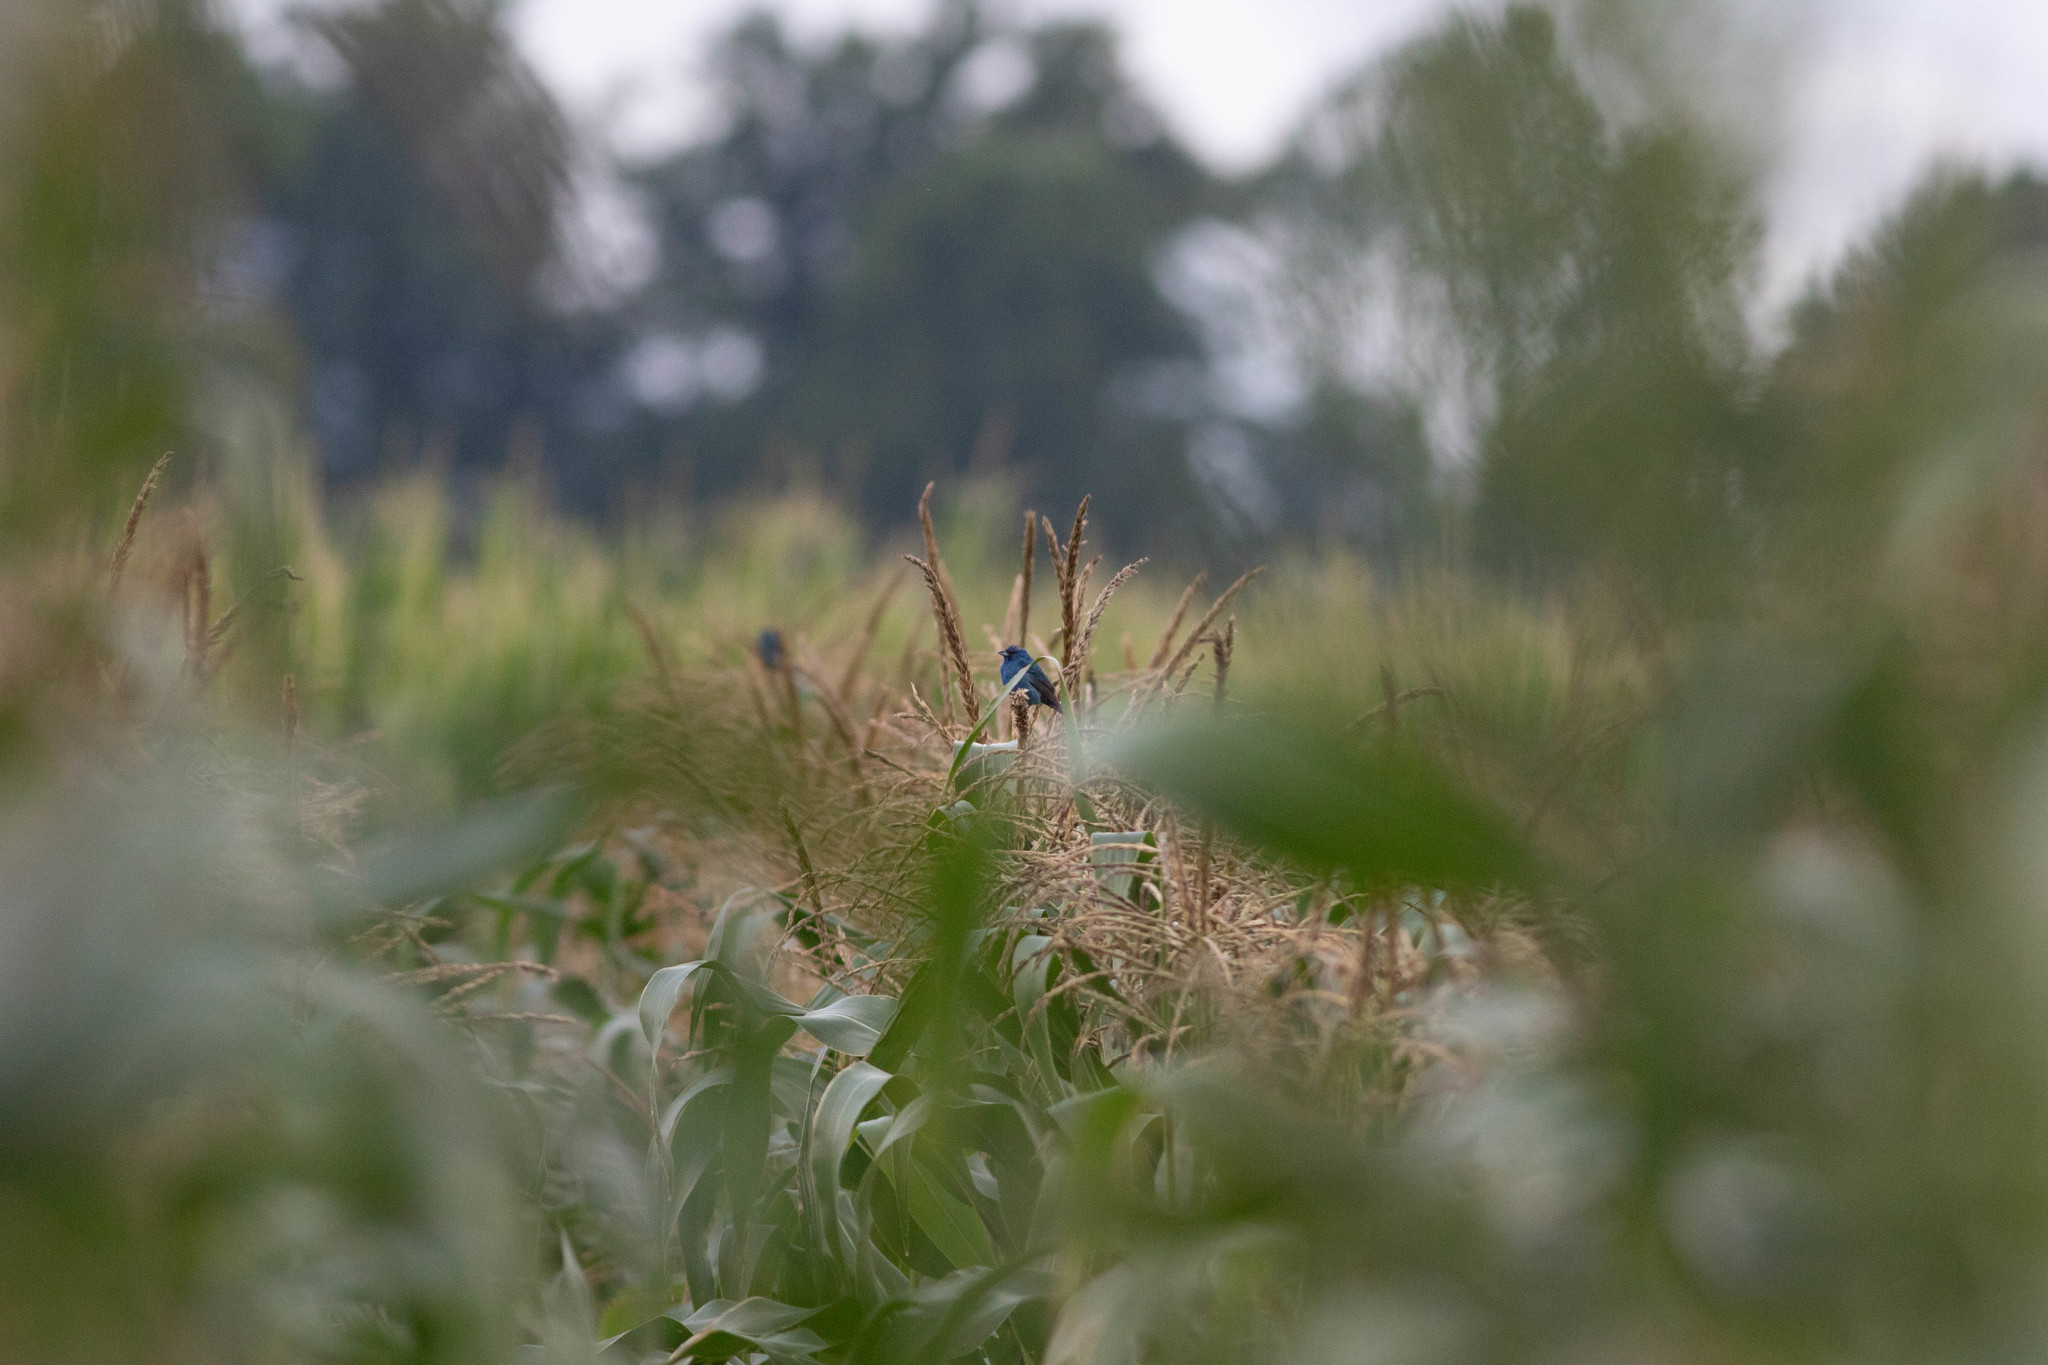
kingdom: Animalia
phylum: Chordata
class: Aves
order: Passeriformes
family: Cardinalidae
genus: Passerina
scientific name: Passerina cyanea
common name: Indigo bunting
